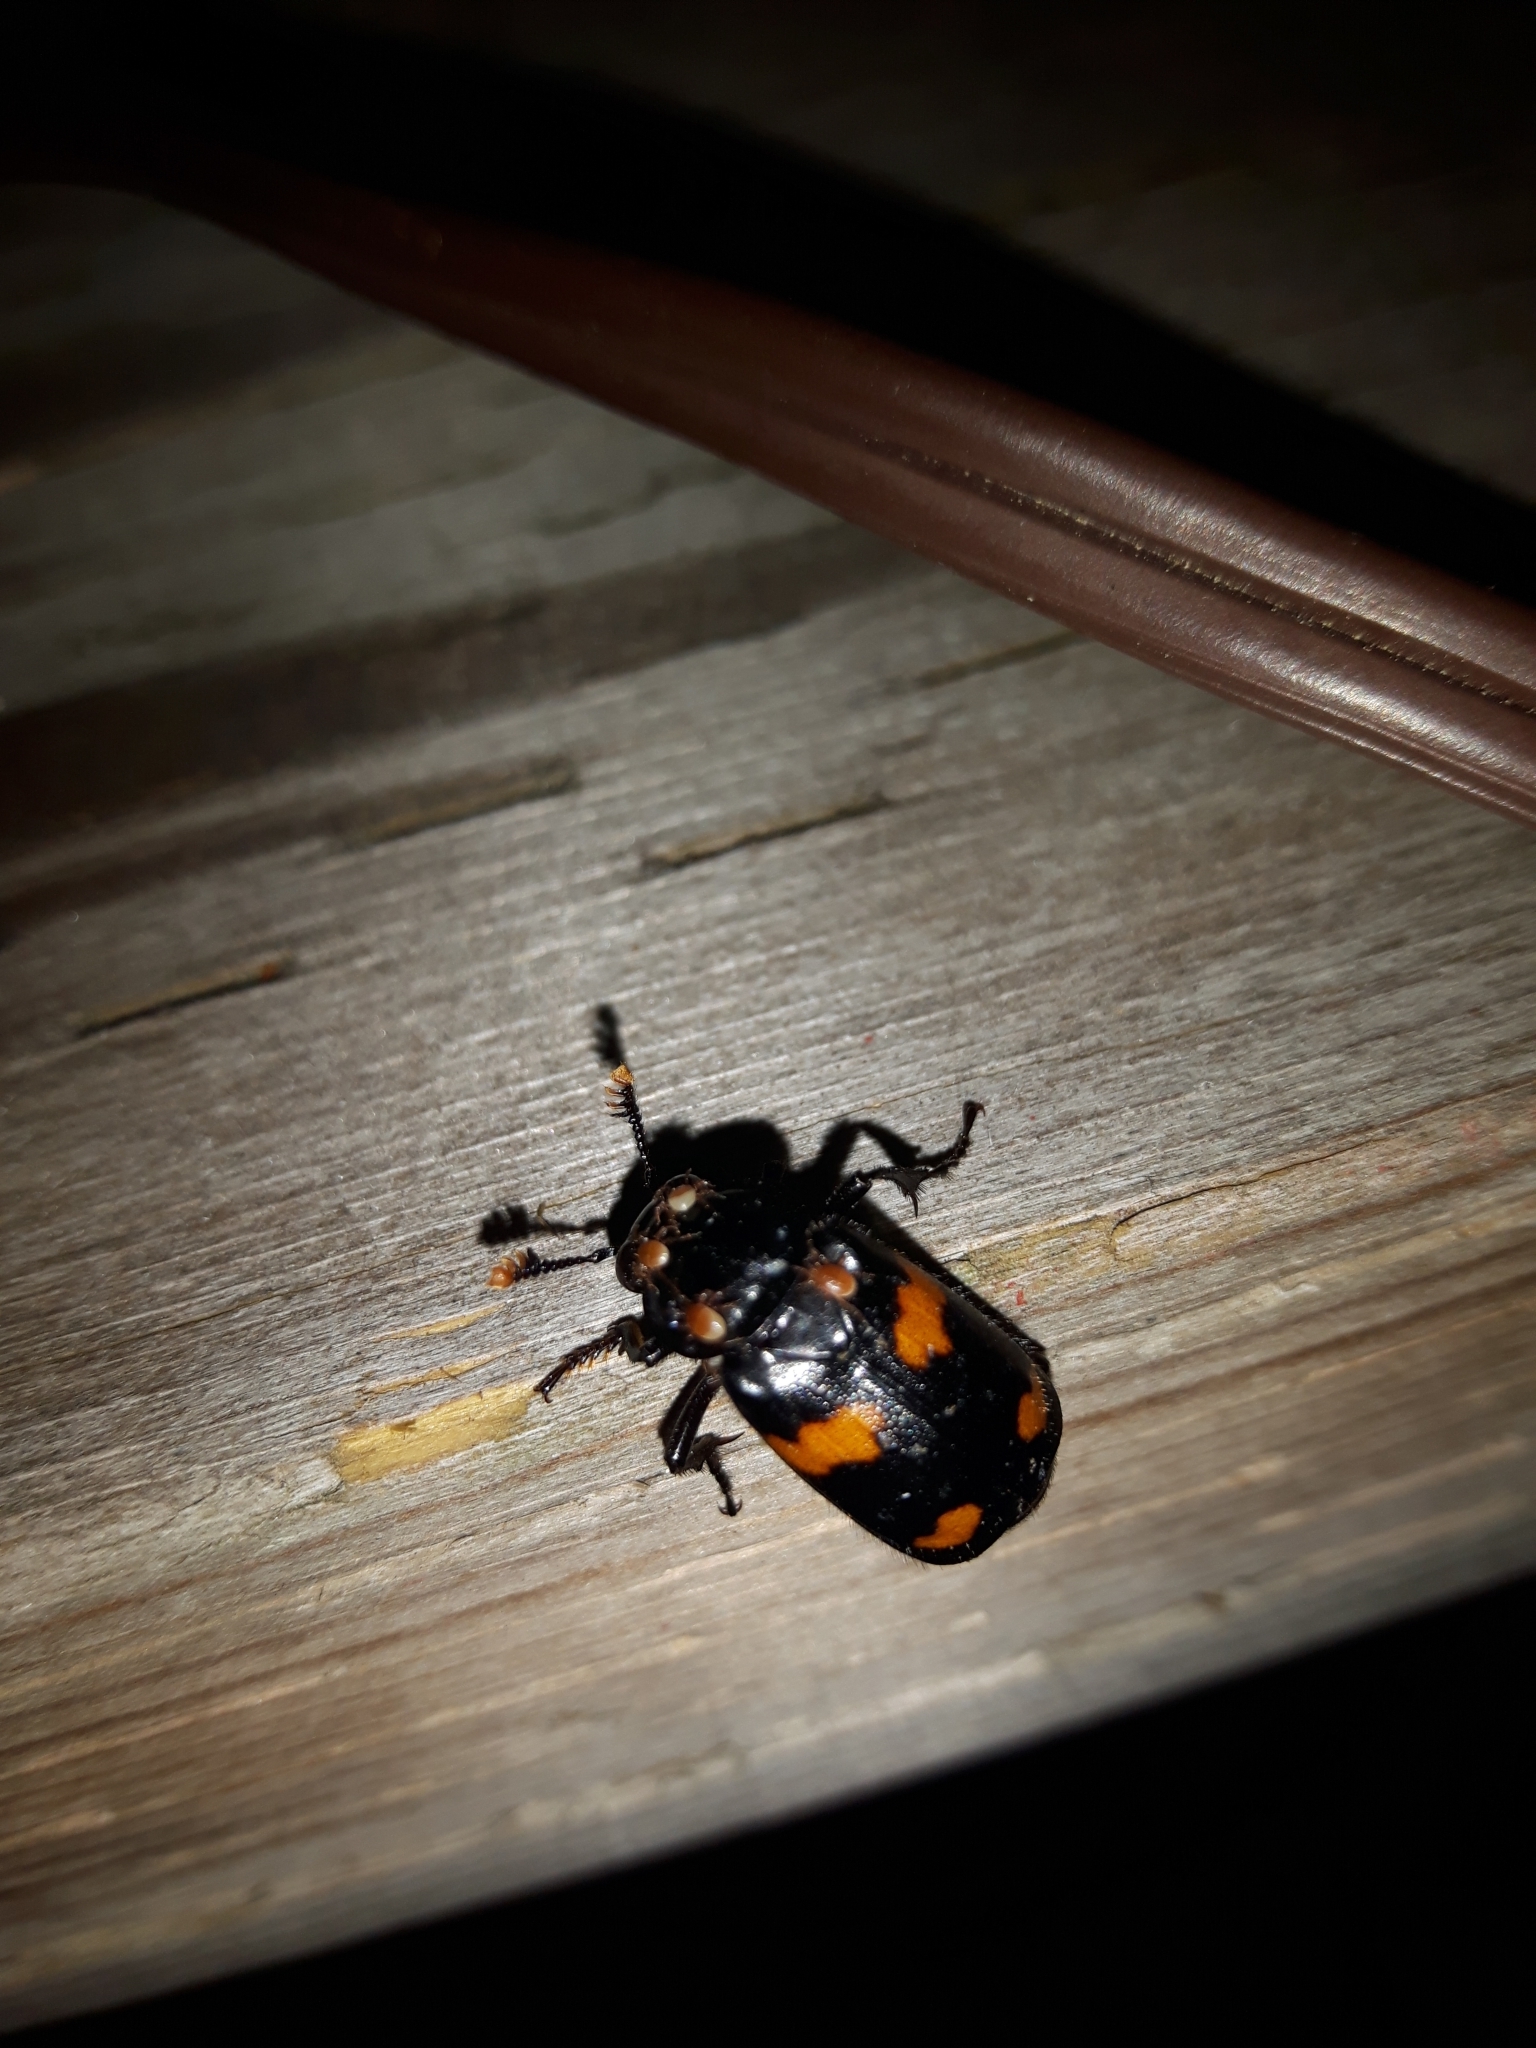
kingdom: Animalia
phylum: Arthropoda
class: Insecta
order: Coleoptera
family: Staphylinidae
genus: Nicrophorus
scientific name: Nicrophorus orbicollis
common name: Roundneck sexton beetle
